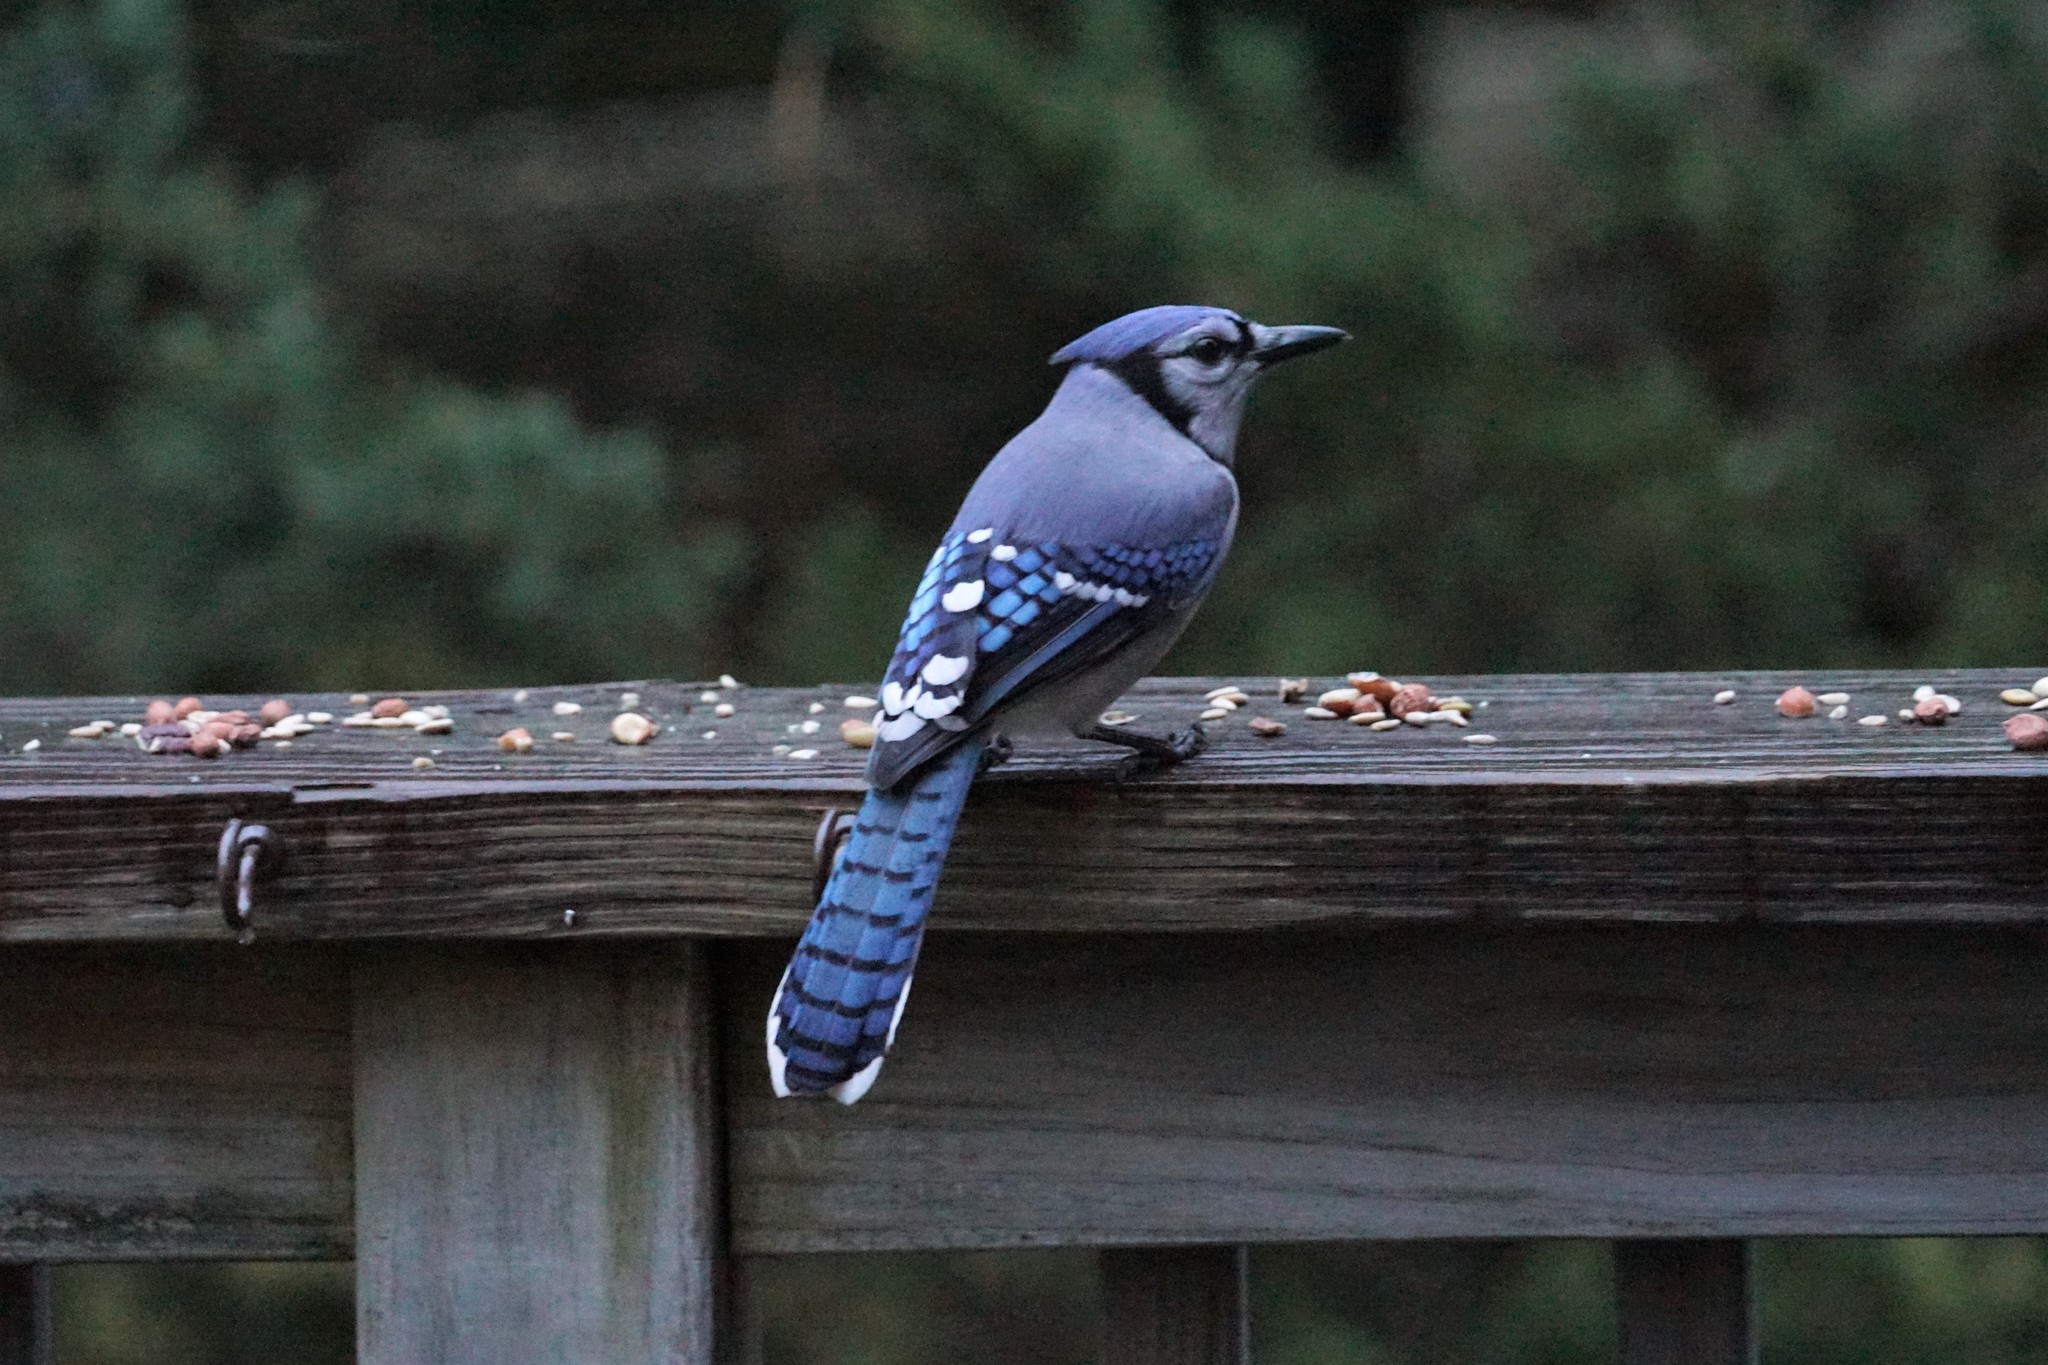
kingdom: Animalia
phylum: Chordata
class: Aves
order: Passeriformes
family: Corvidae
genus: Cyanocitta
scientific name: Cyanocitta cristata
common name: Blue jay
